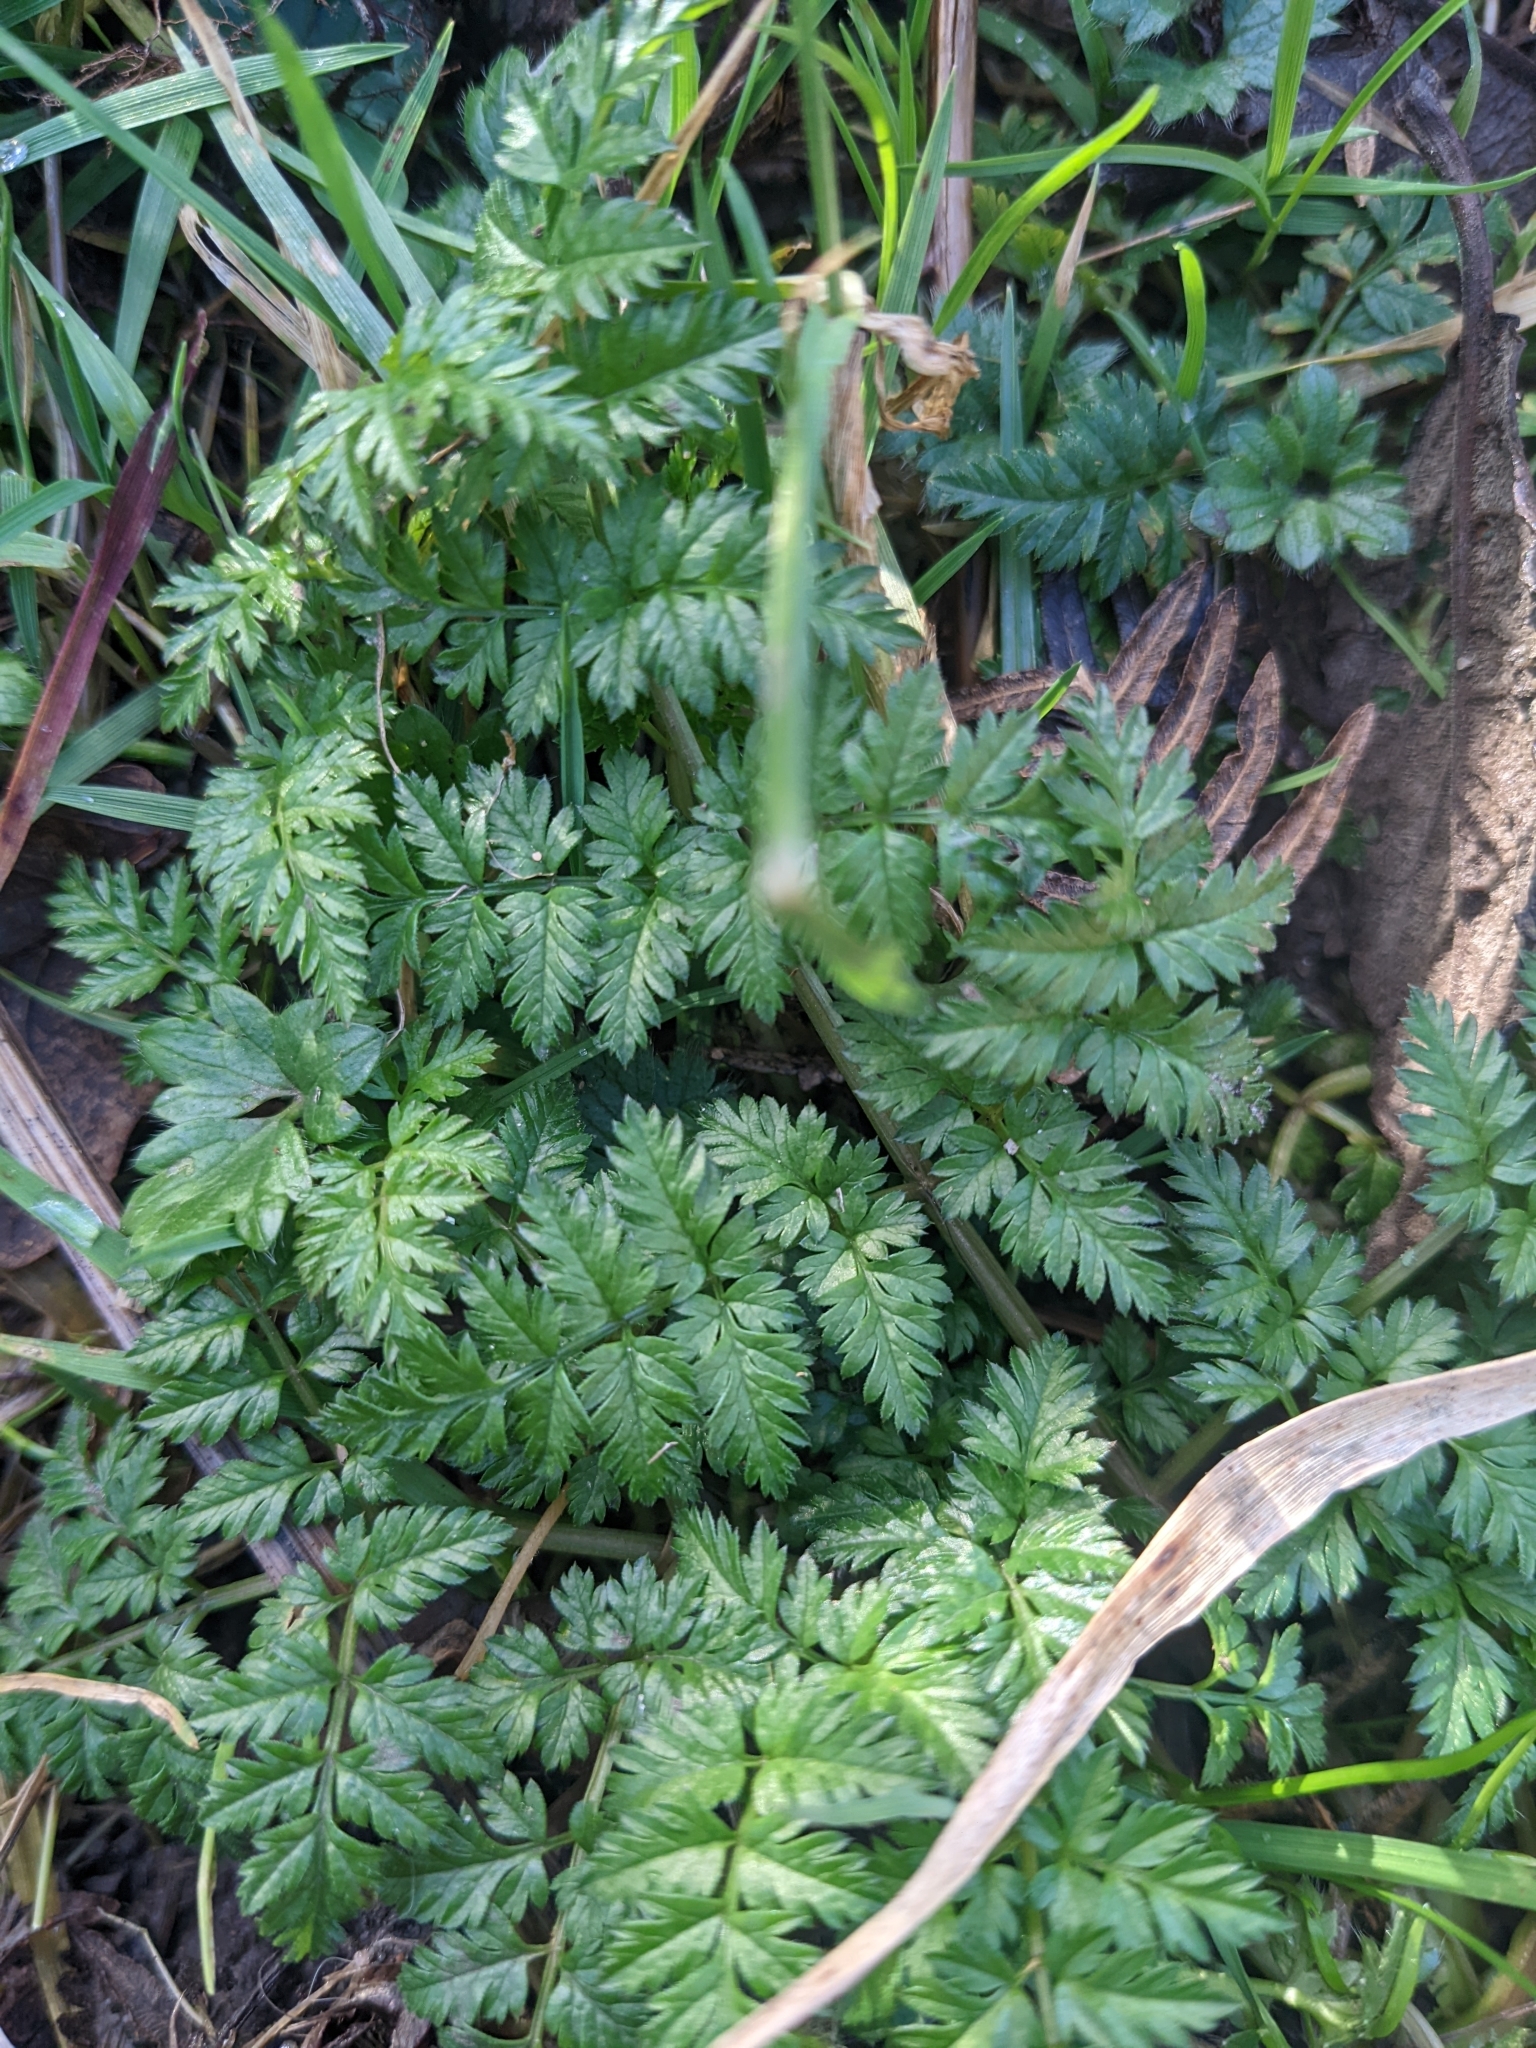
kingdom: Plantae
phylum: Tracheophyta
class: Magnoliopsida
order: Apiales
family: Apiaceae
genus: Anthriscus
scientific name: Anthriscus sylvestris
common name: Cow parsley
